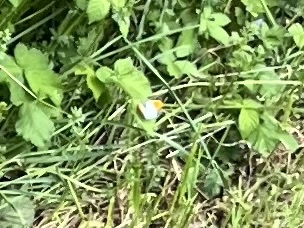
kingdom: Animalia
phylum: Arthropoda
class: Insecta
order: Lepidoptera
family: Pieridae
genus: Anthocharis
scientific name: Anthocharis cardamines
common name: Orange-tip
